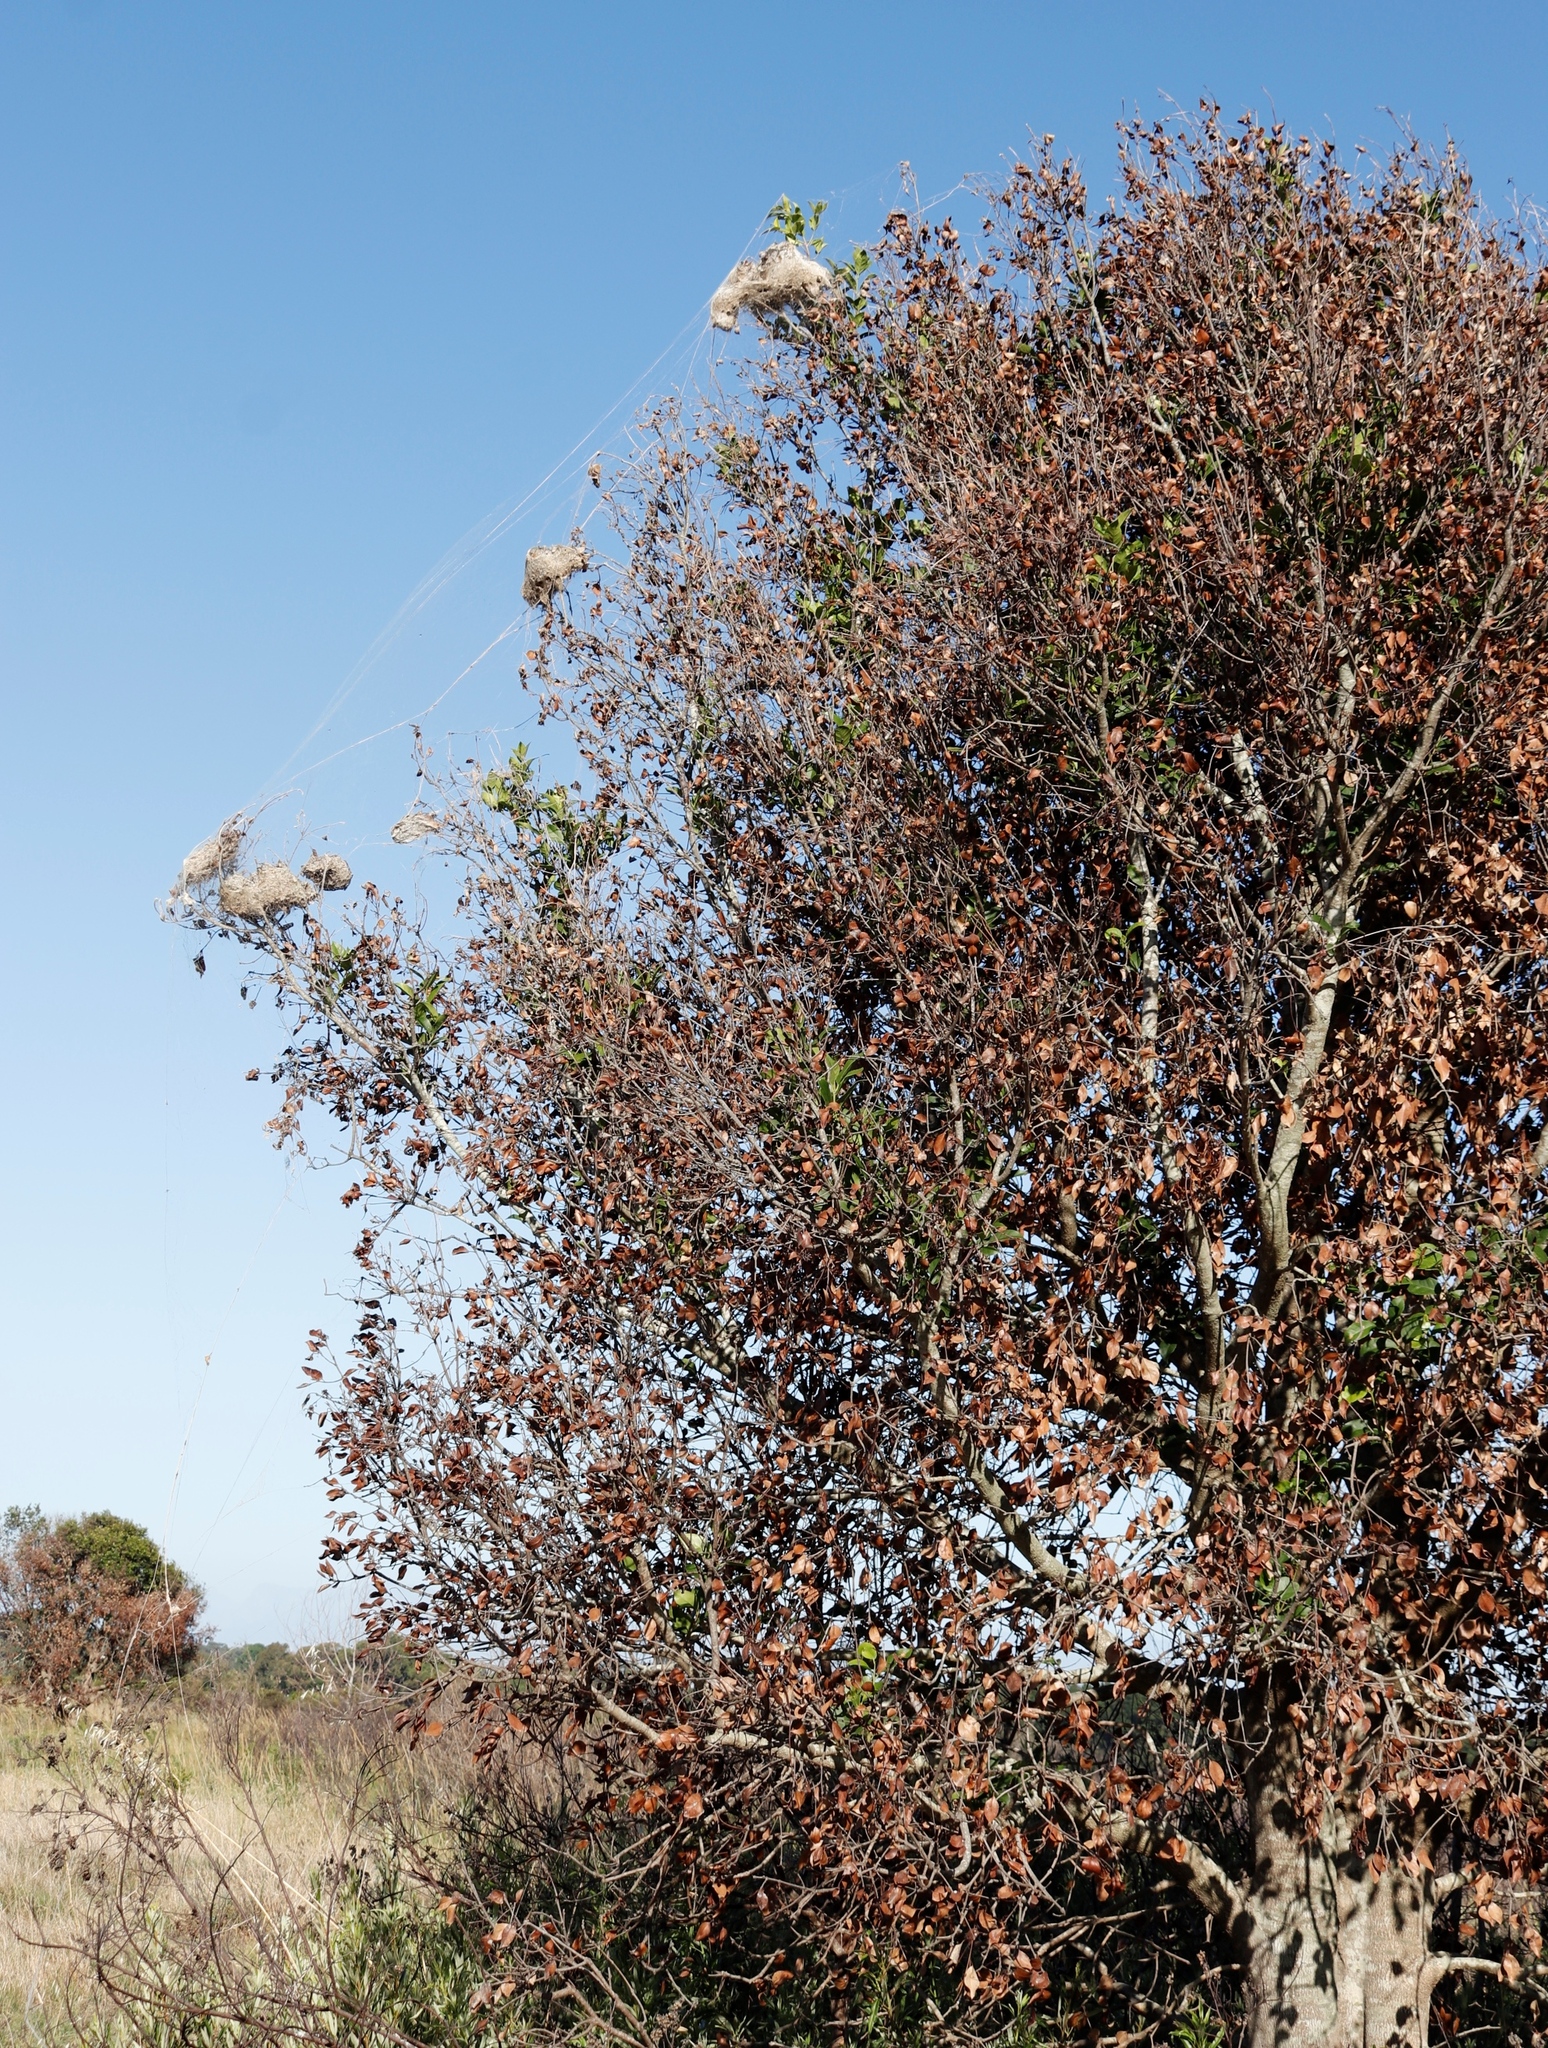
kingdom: Plantae
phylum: Tracheophyta
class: Magnoliopsida
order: Malpighiales
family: Salicaceae
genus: Scolopia
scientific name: Scolopia mundii
